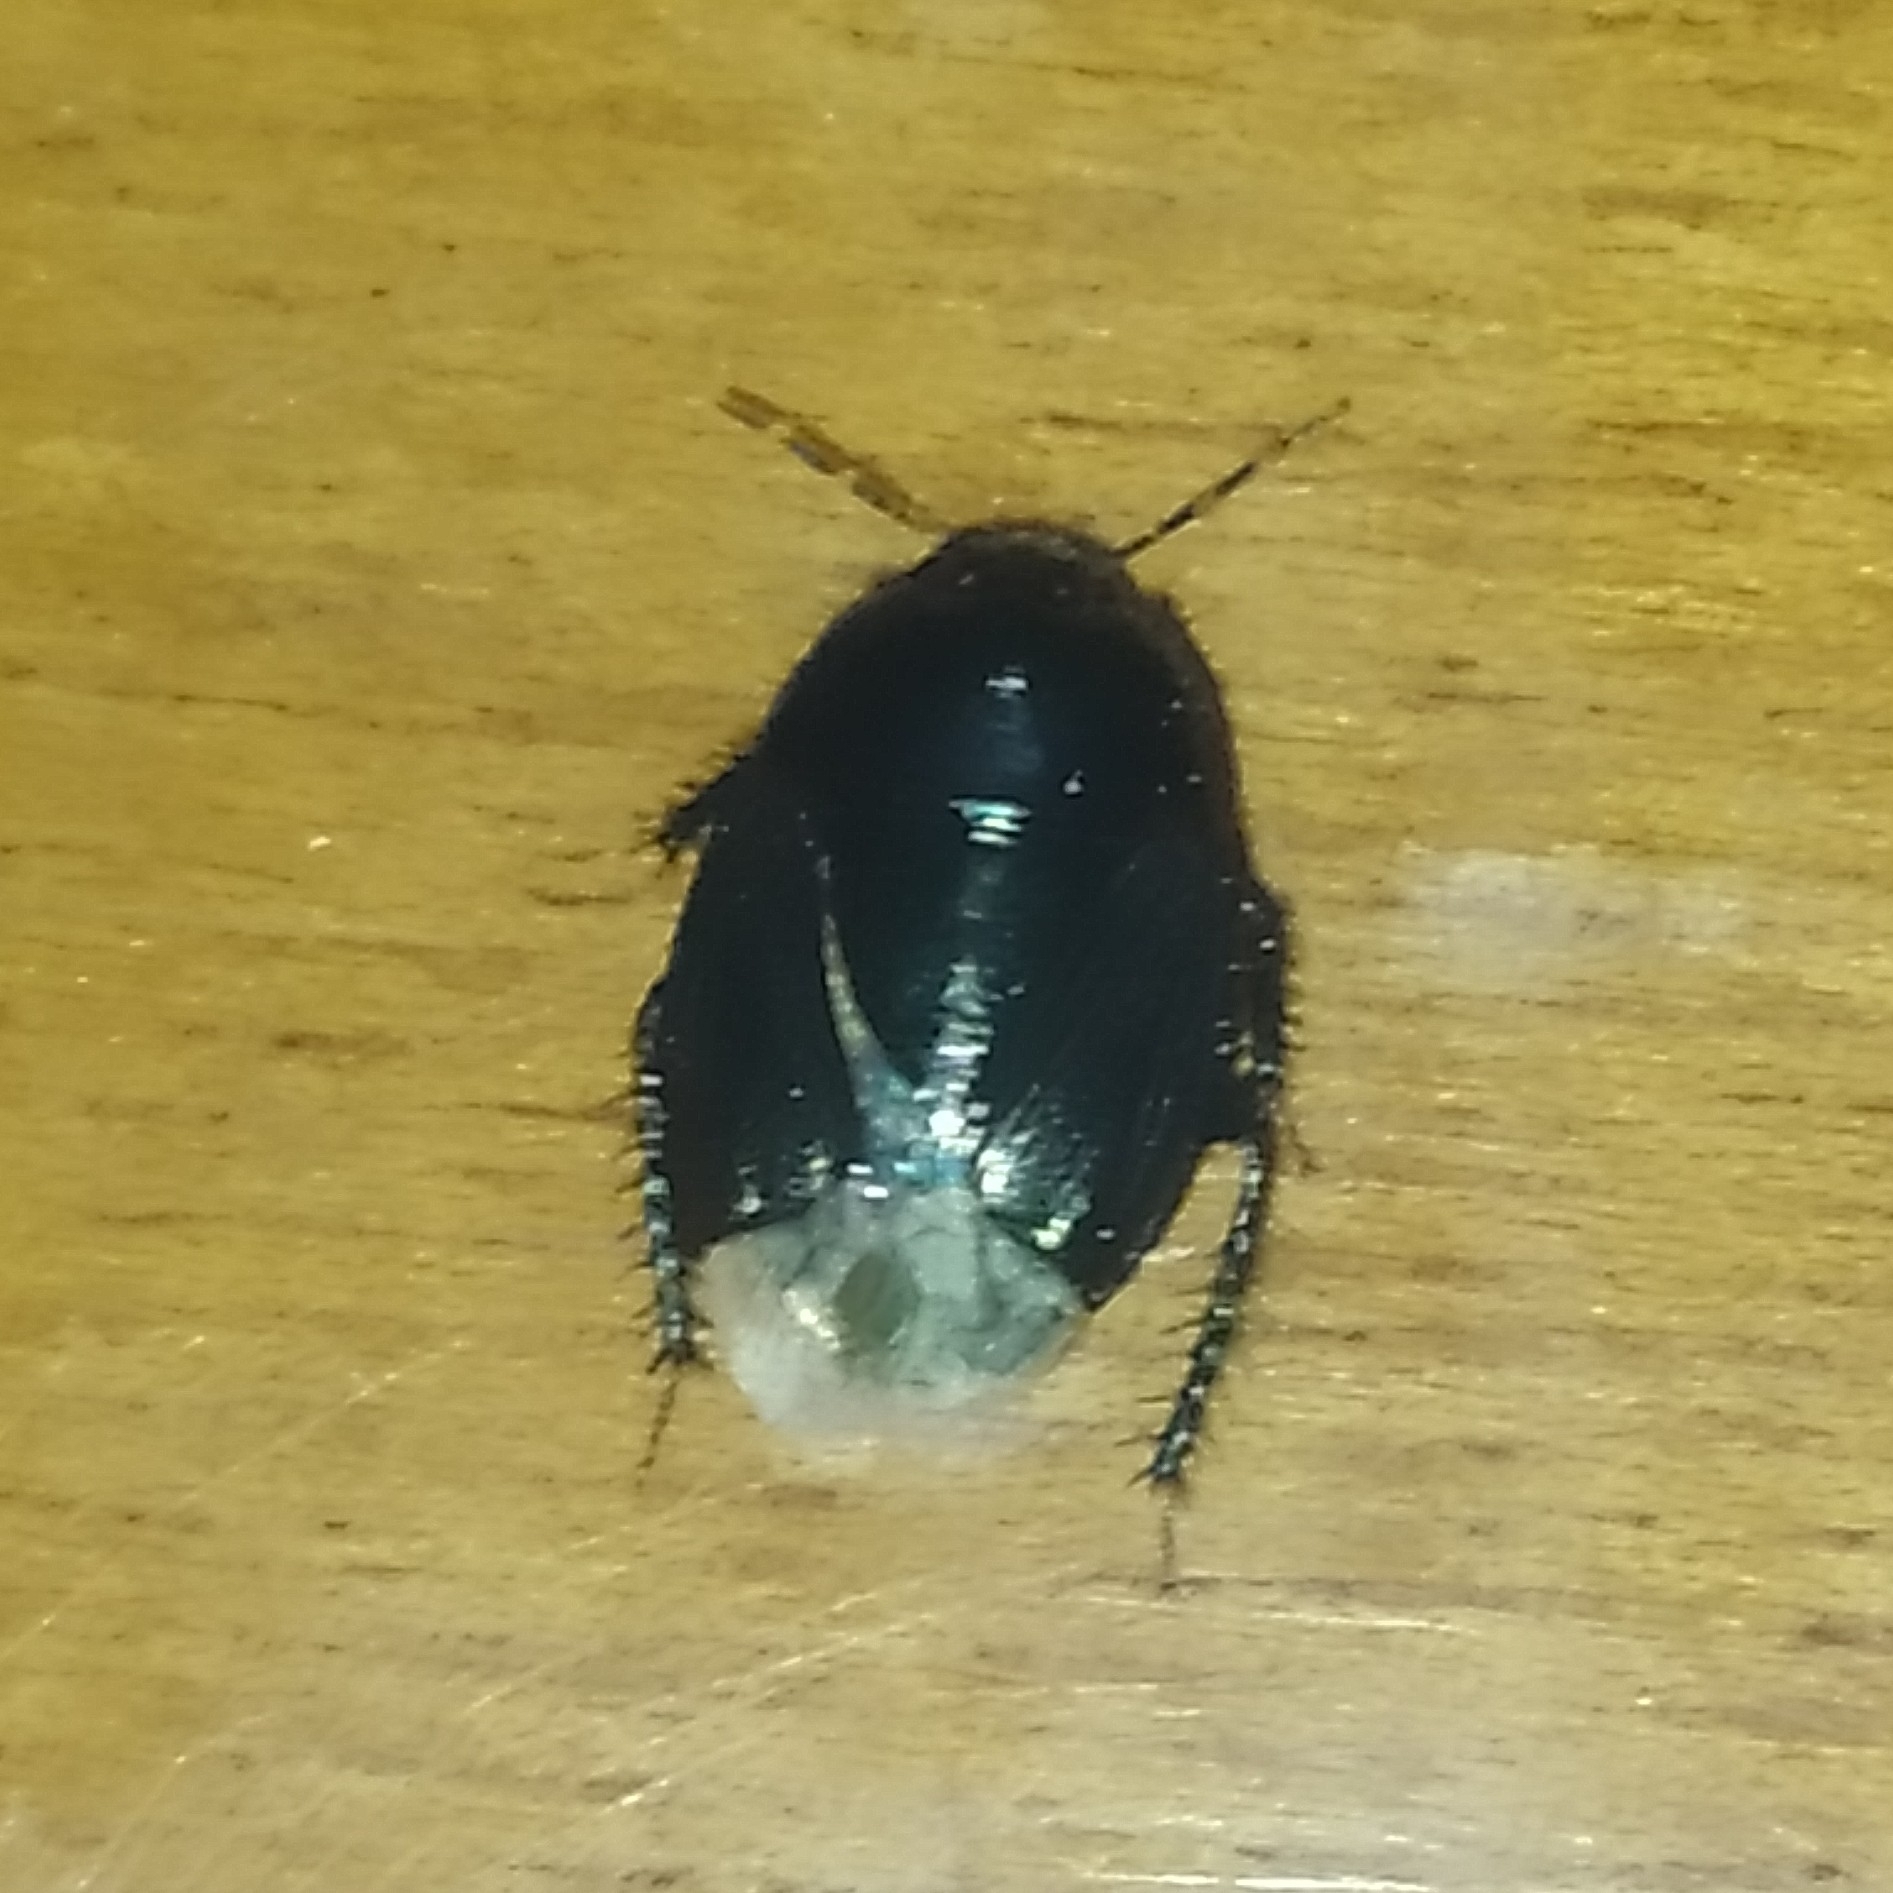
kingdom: Animalia
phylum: Arthropoda
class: Insecta
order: Hemiptera
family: Cydnidae
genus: Macroscytus
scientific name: Macroscytus brunneus
